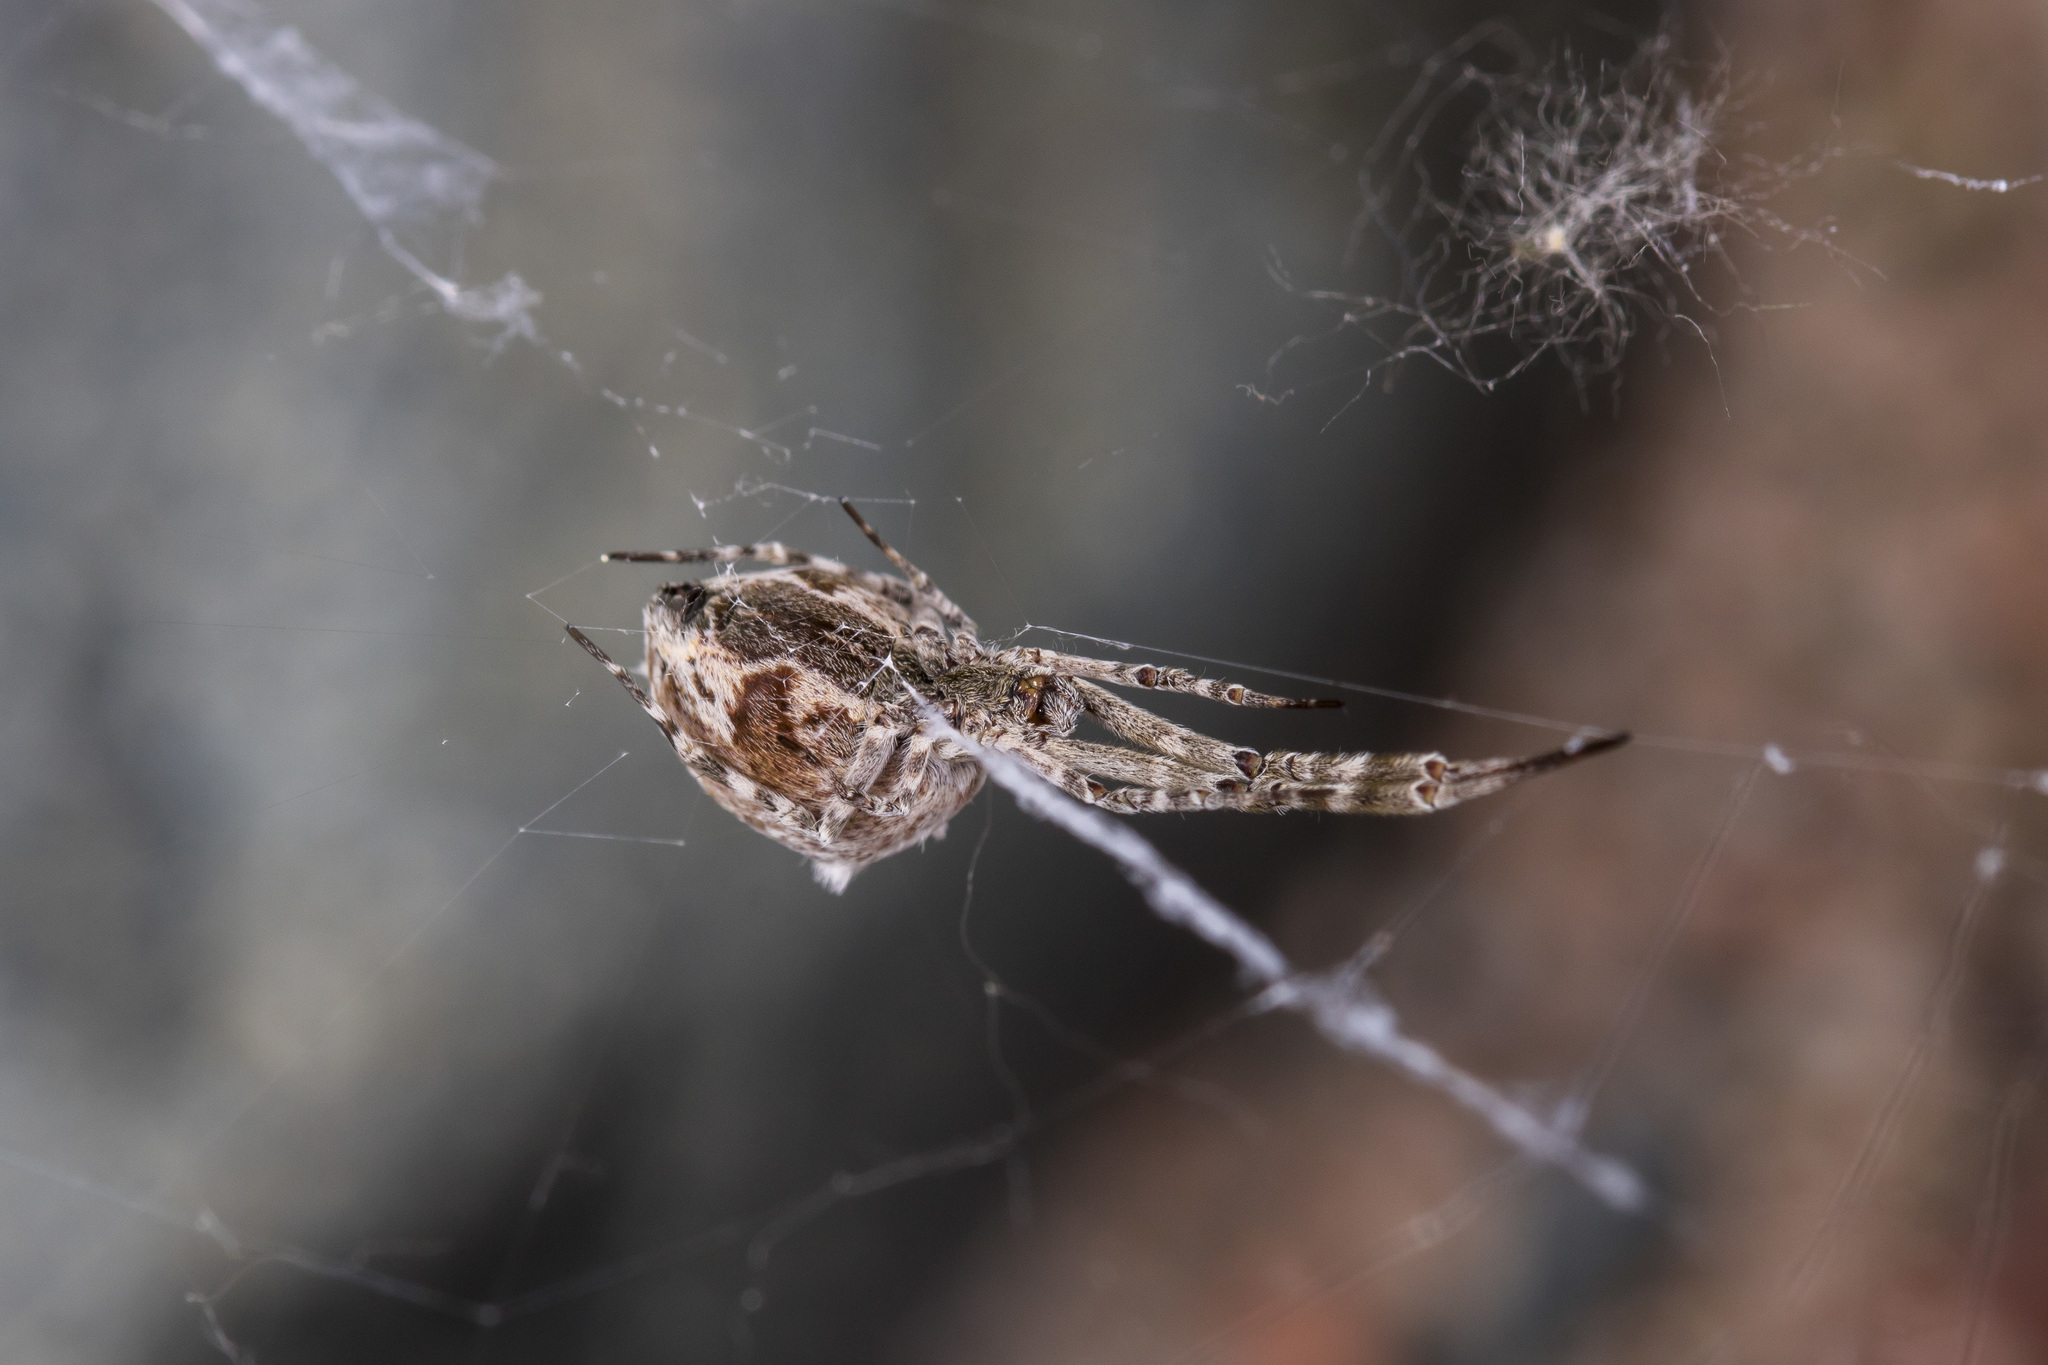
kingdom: Animalia
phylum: Arthropoda
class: Arachnida
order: Araneae
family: Uloboridae
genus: Uloborus
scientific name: Uloborus walckenaerius
